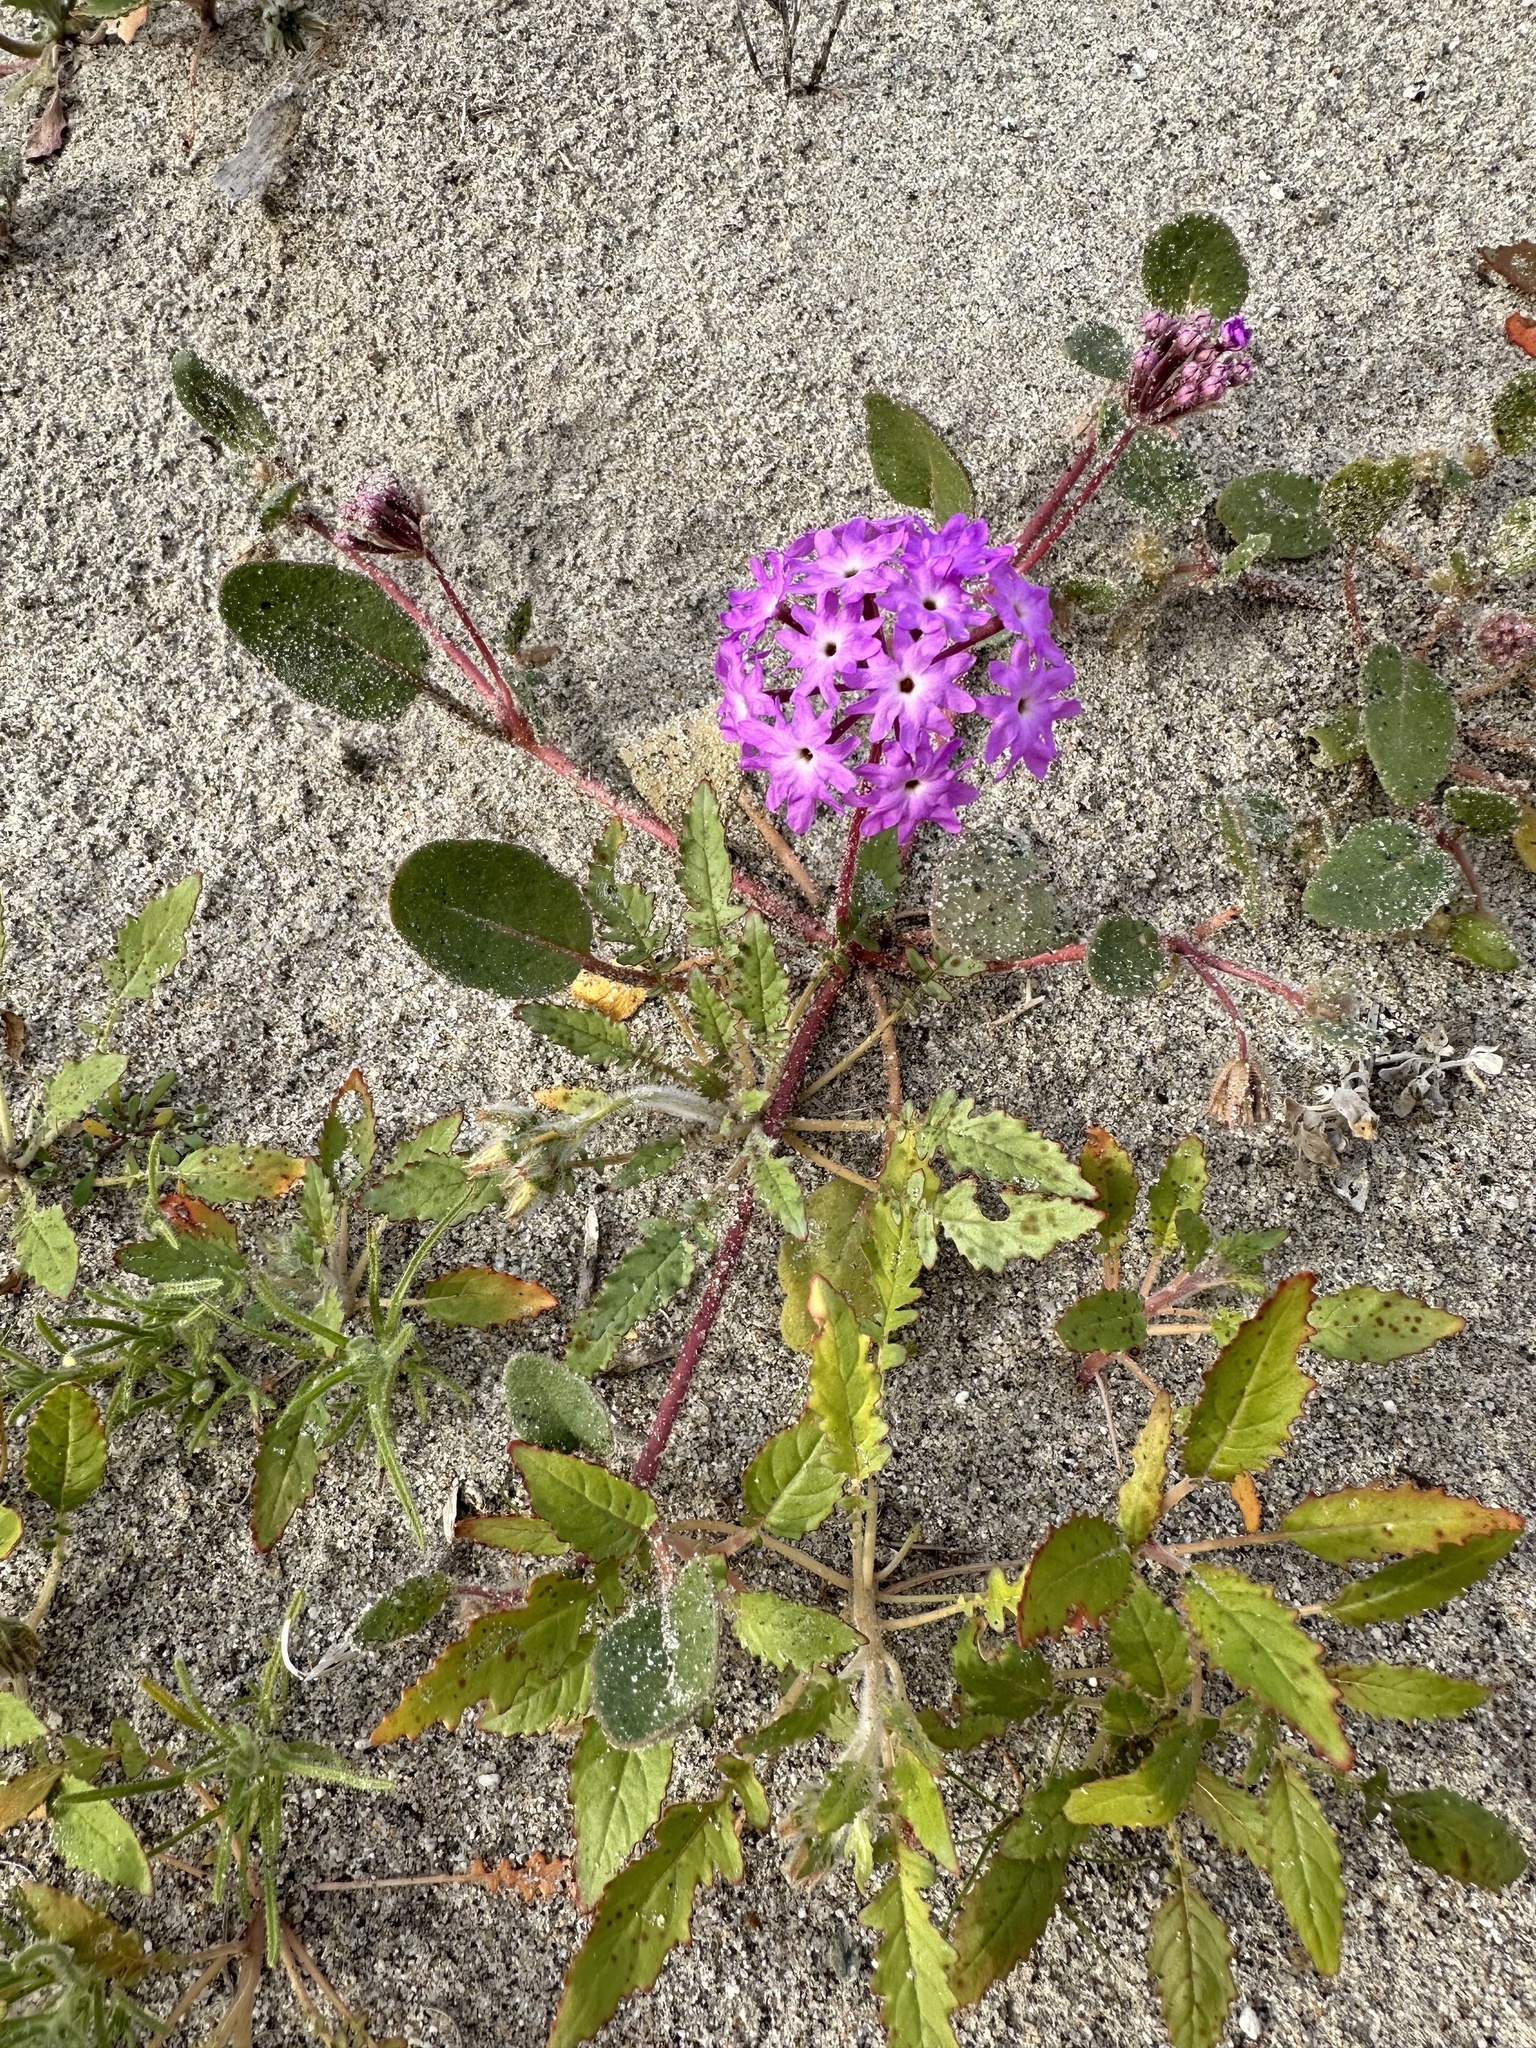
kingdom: Plantae
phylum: Tracheophyta
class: Magnoliopsida
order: Caryophyllales
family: Nyctaginaceae
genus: Abronia
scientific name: Abronia villosa
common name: Desert sand-verbena
